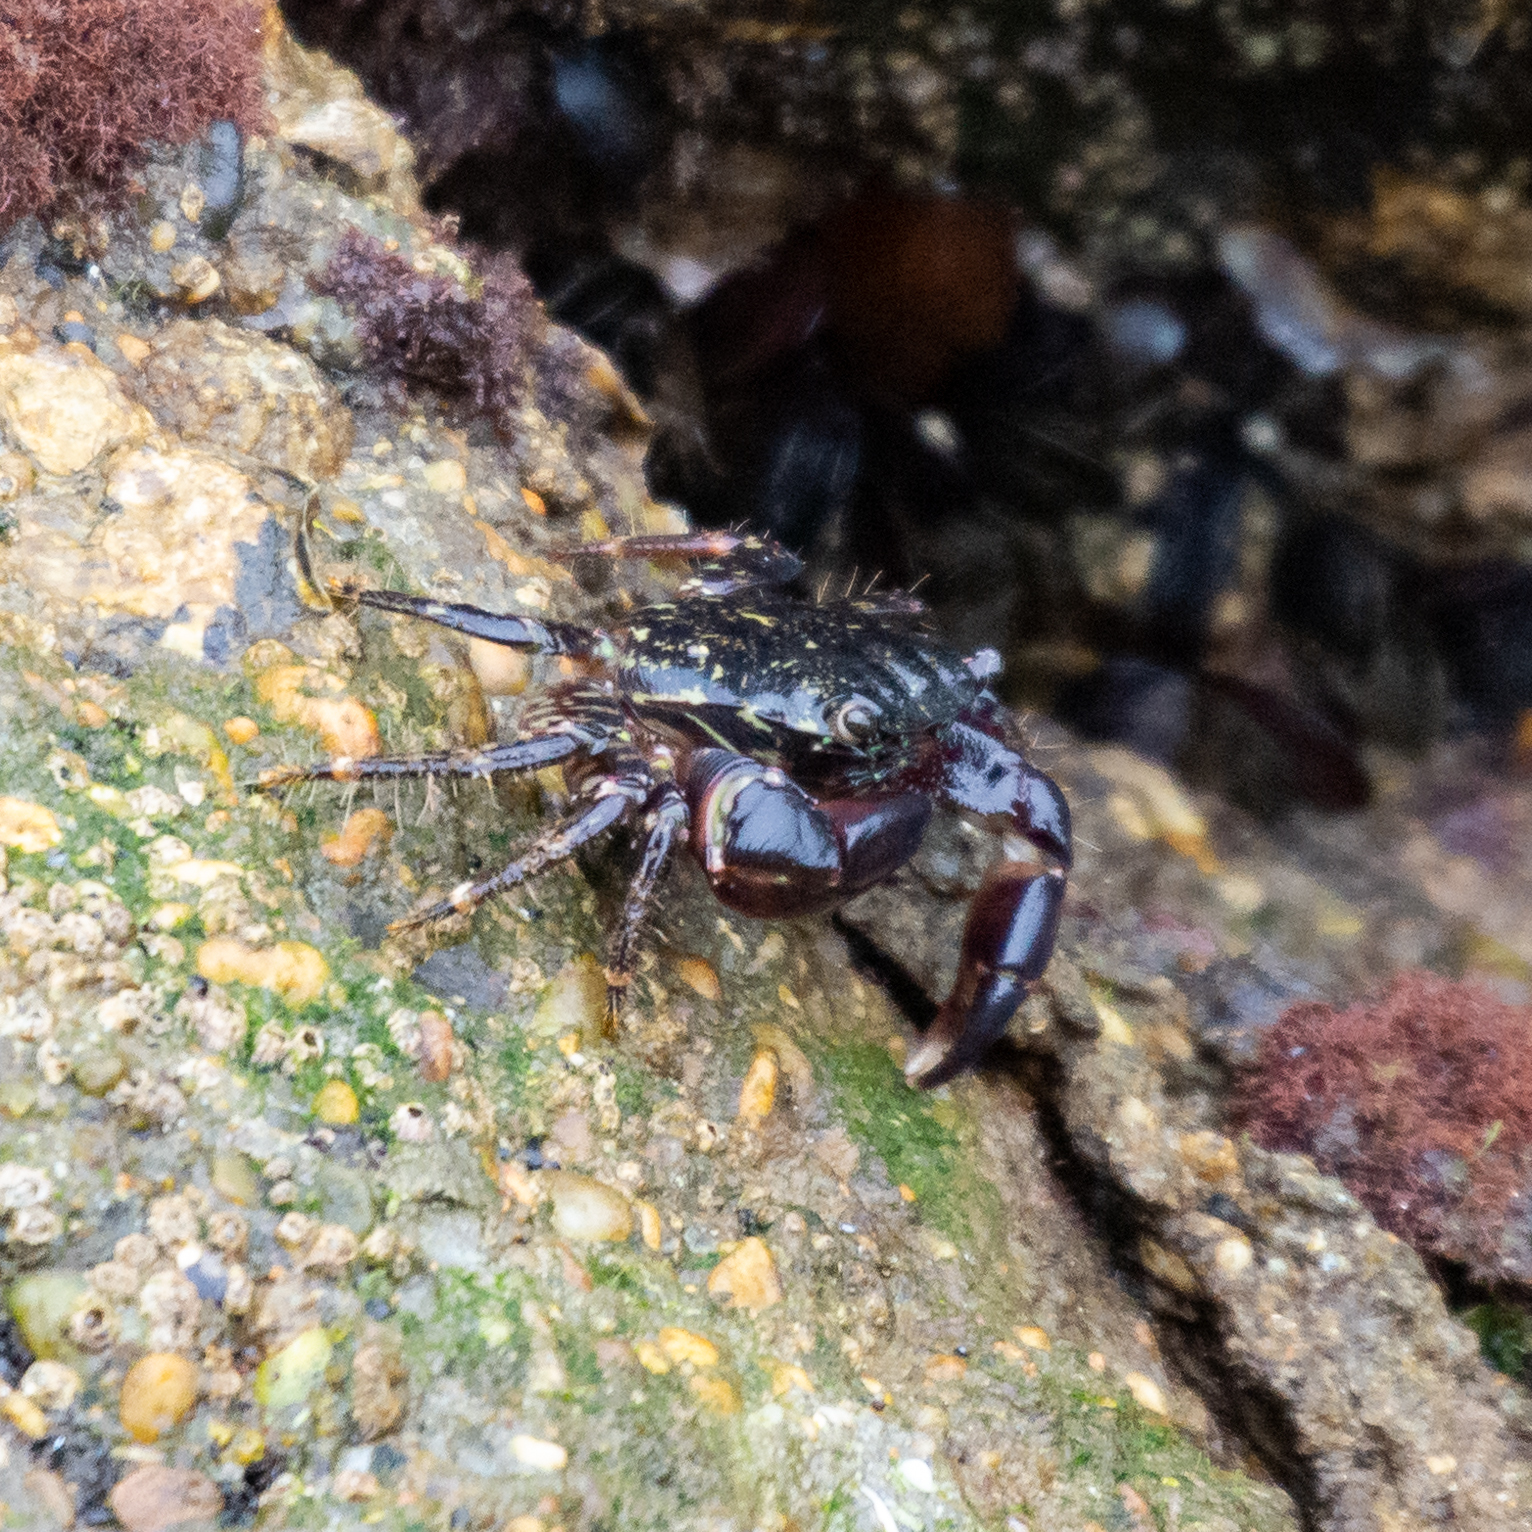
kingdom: Animalia
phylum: Arthropoda
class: Malacostraca
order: Decapoda
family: Grapsidae
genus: Pachygrapsus
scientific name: Pachygrapsus marmoratus
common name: Marbled rock crab
